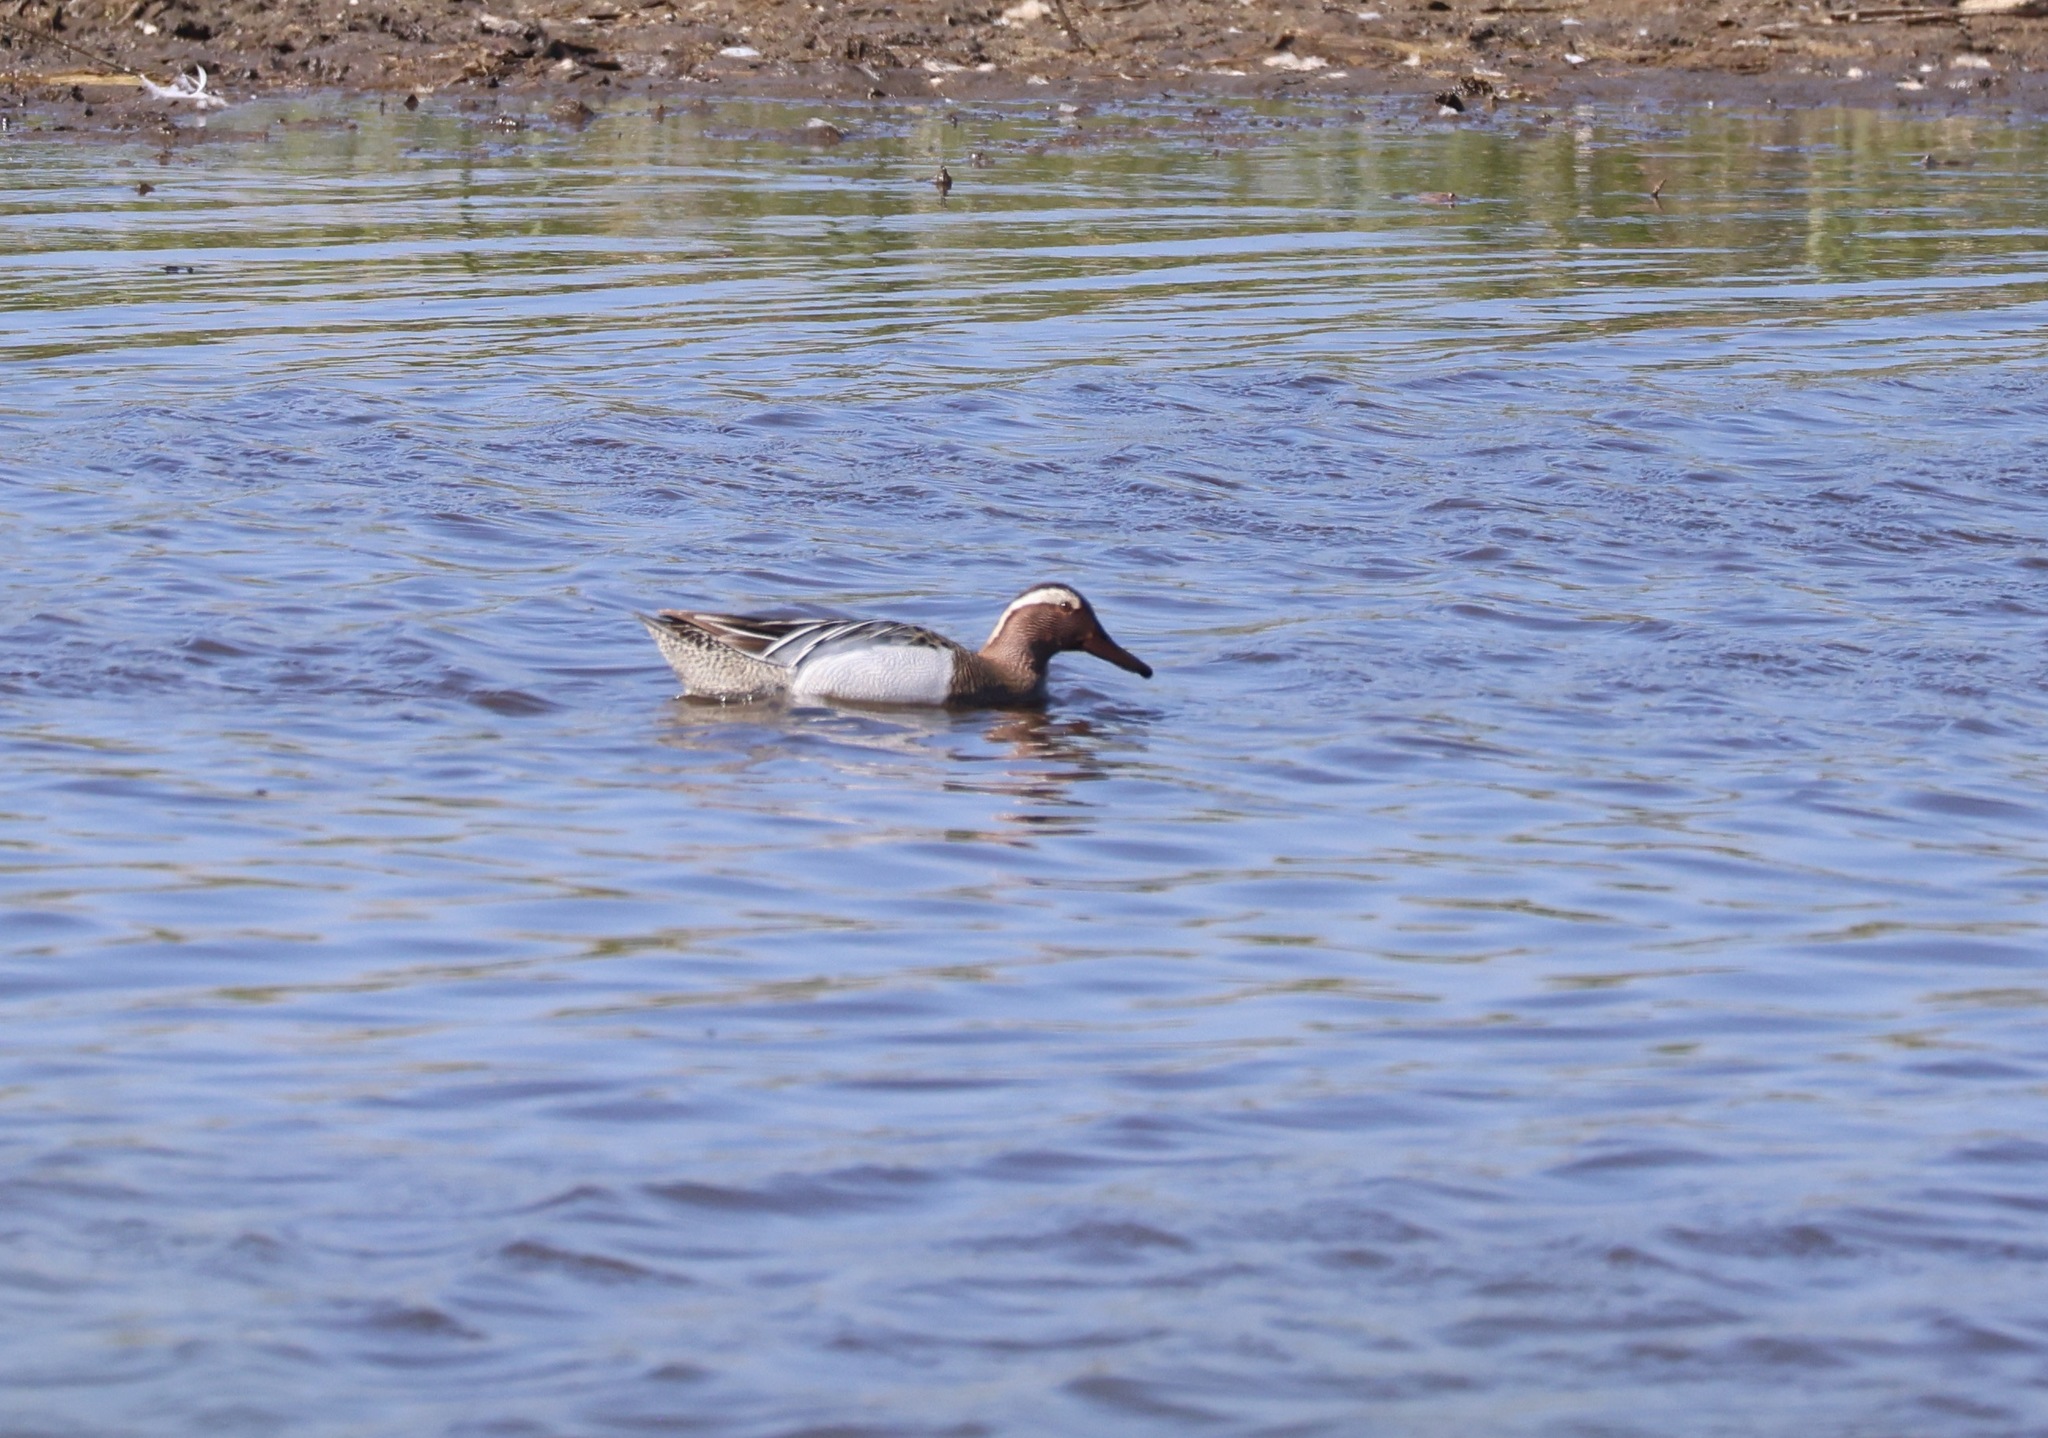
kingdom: Animalia
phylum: Chordata
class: Aves
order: Anseriformes
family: Anatidae
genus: Spatula
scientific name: Spatula querquedula
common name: Garganey
